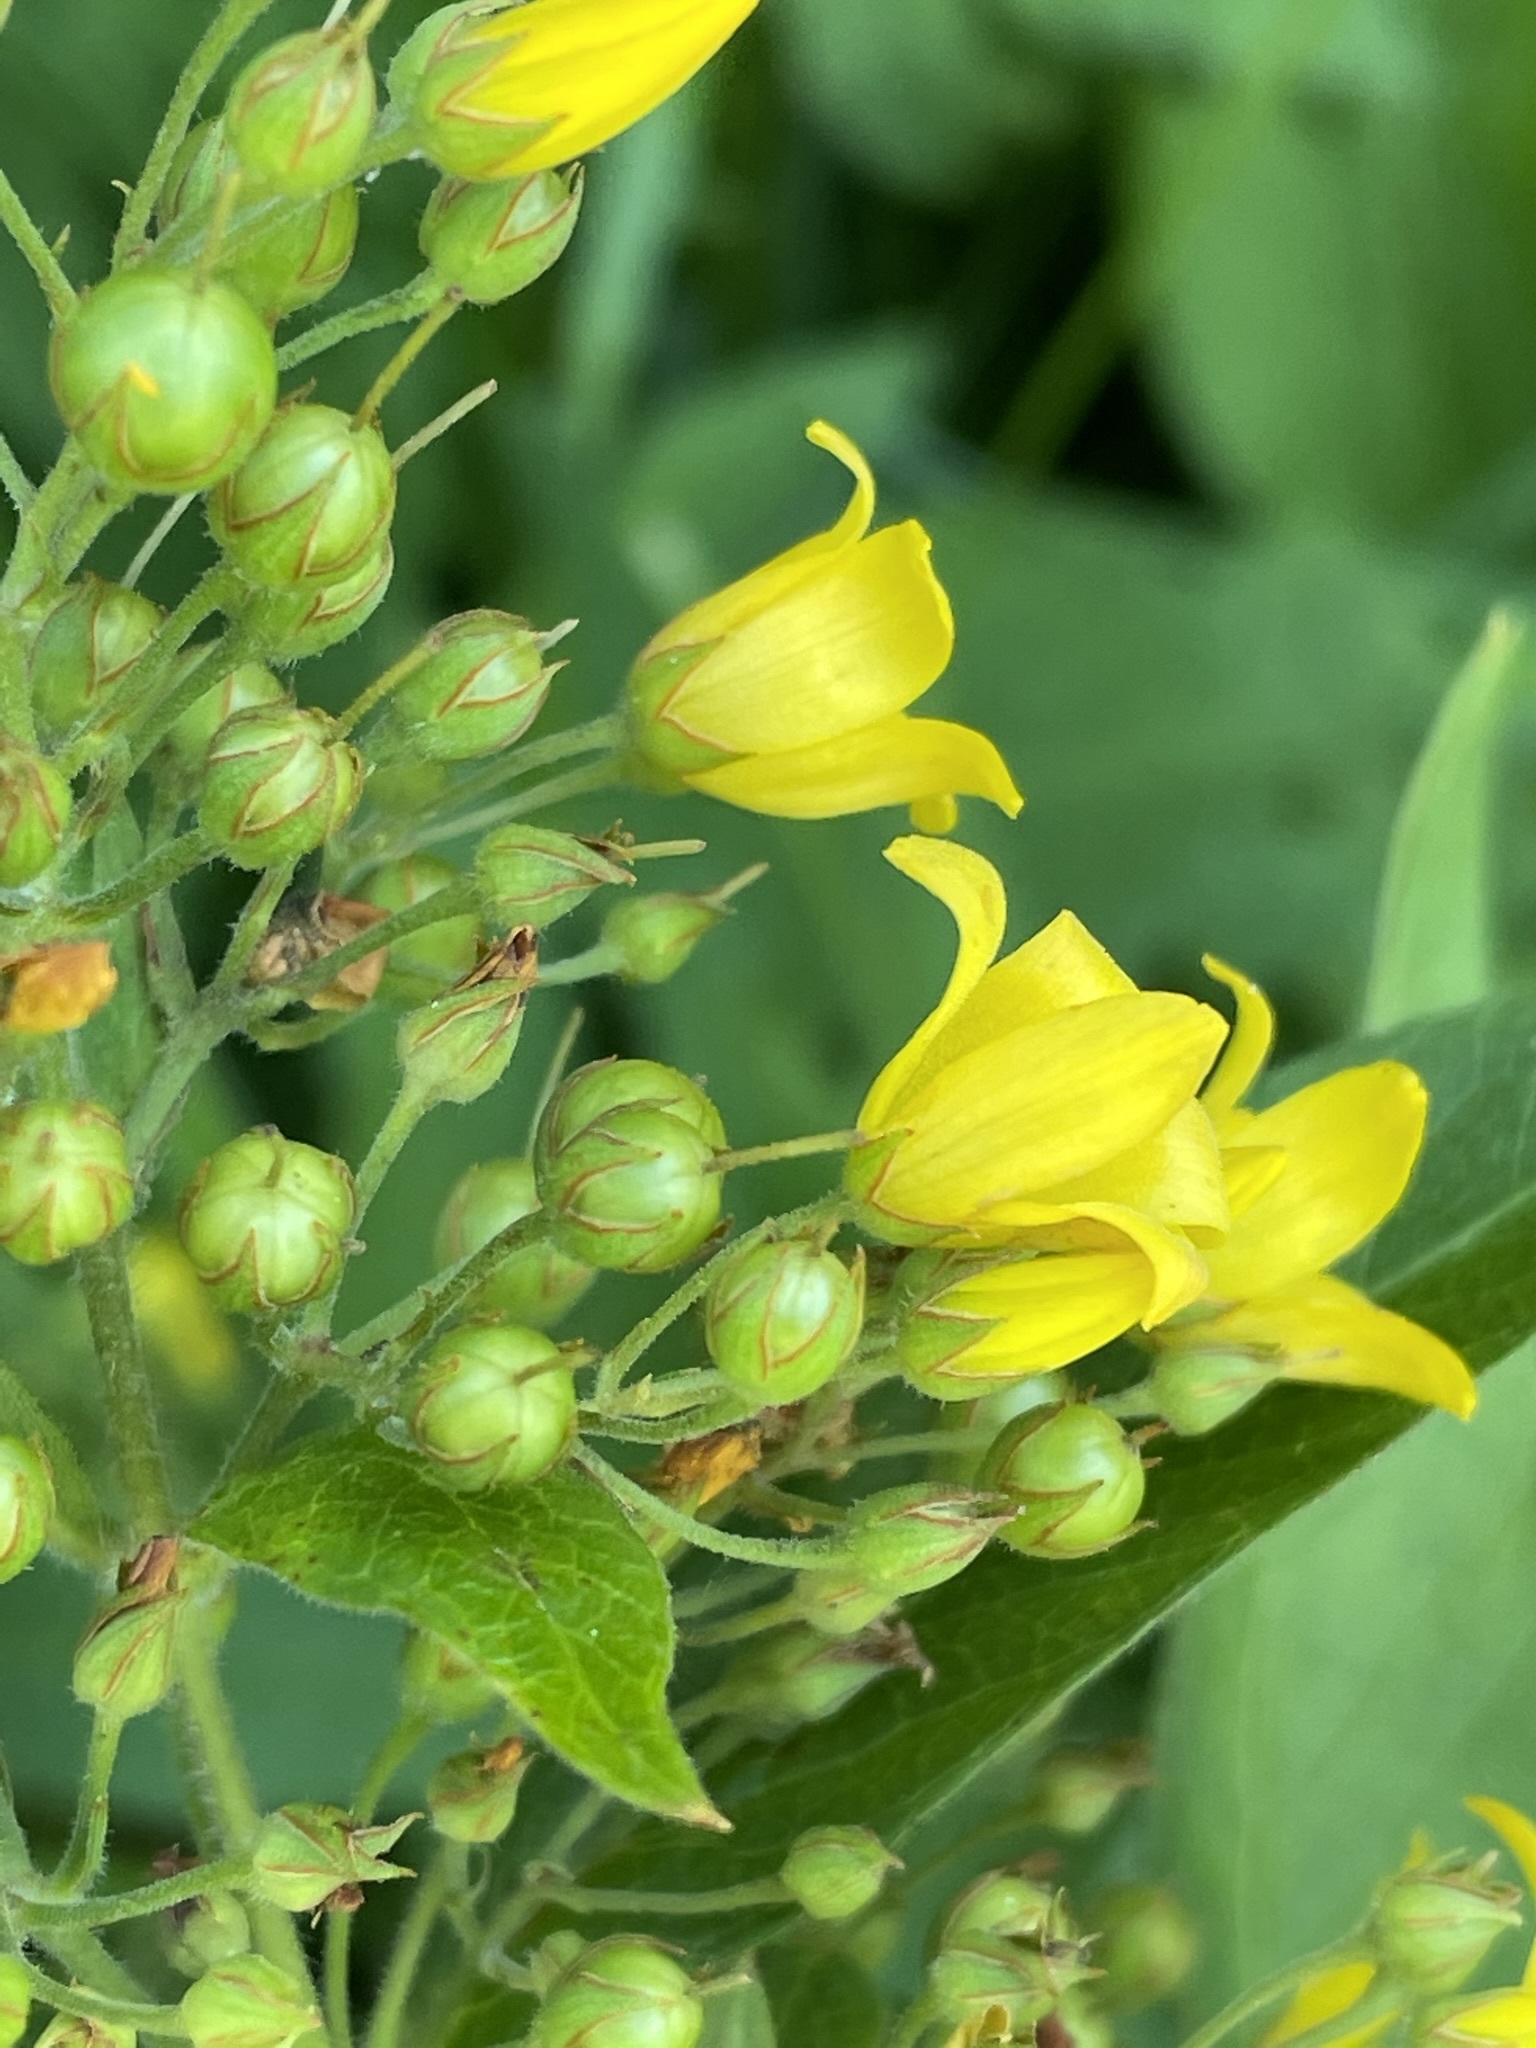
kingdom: Plantae
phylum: Tracheophyta
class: Magnoliopsida
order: Ericales
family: Primulaceae
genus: Lysimachia
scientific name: Lysimachia vulgaris
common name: Yellow loosestrife
